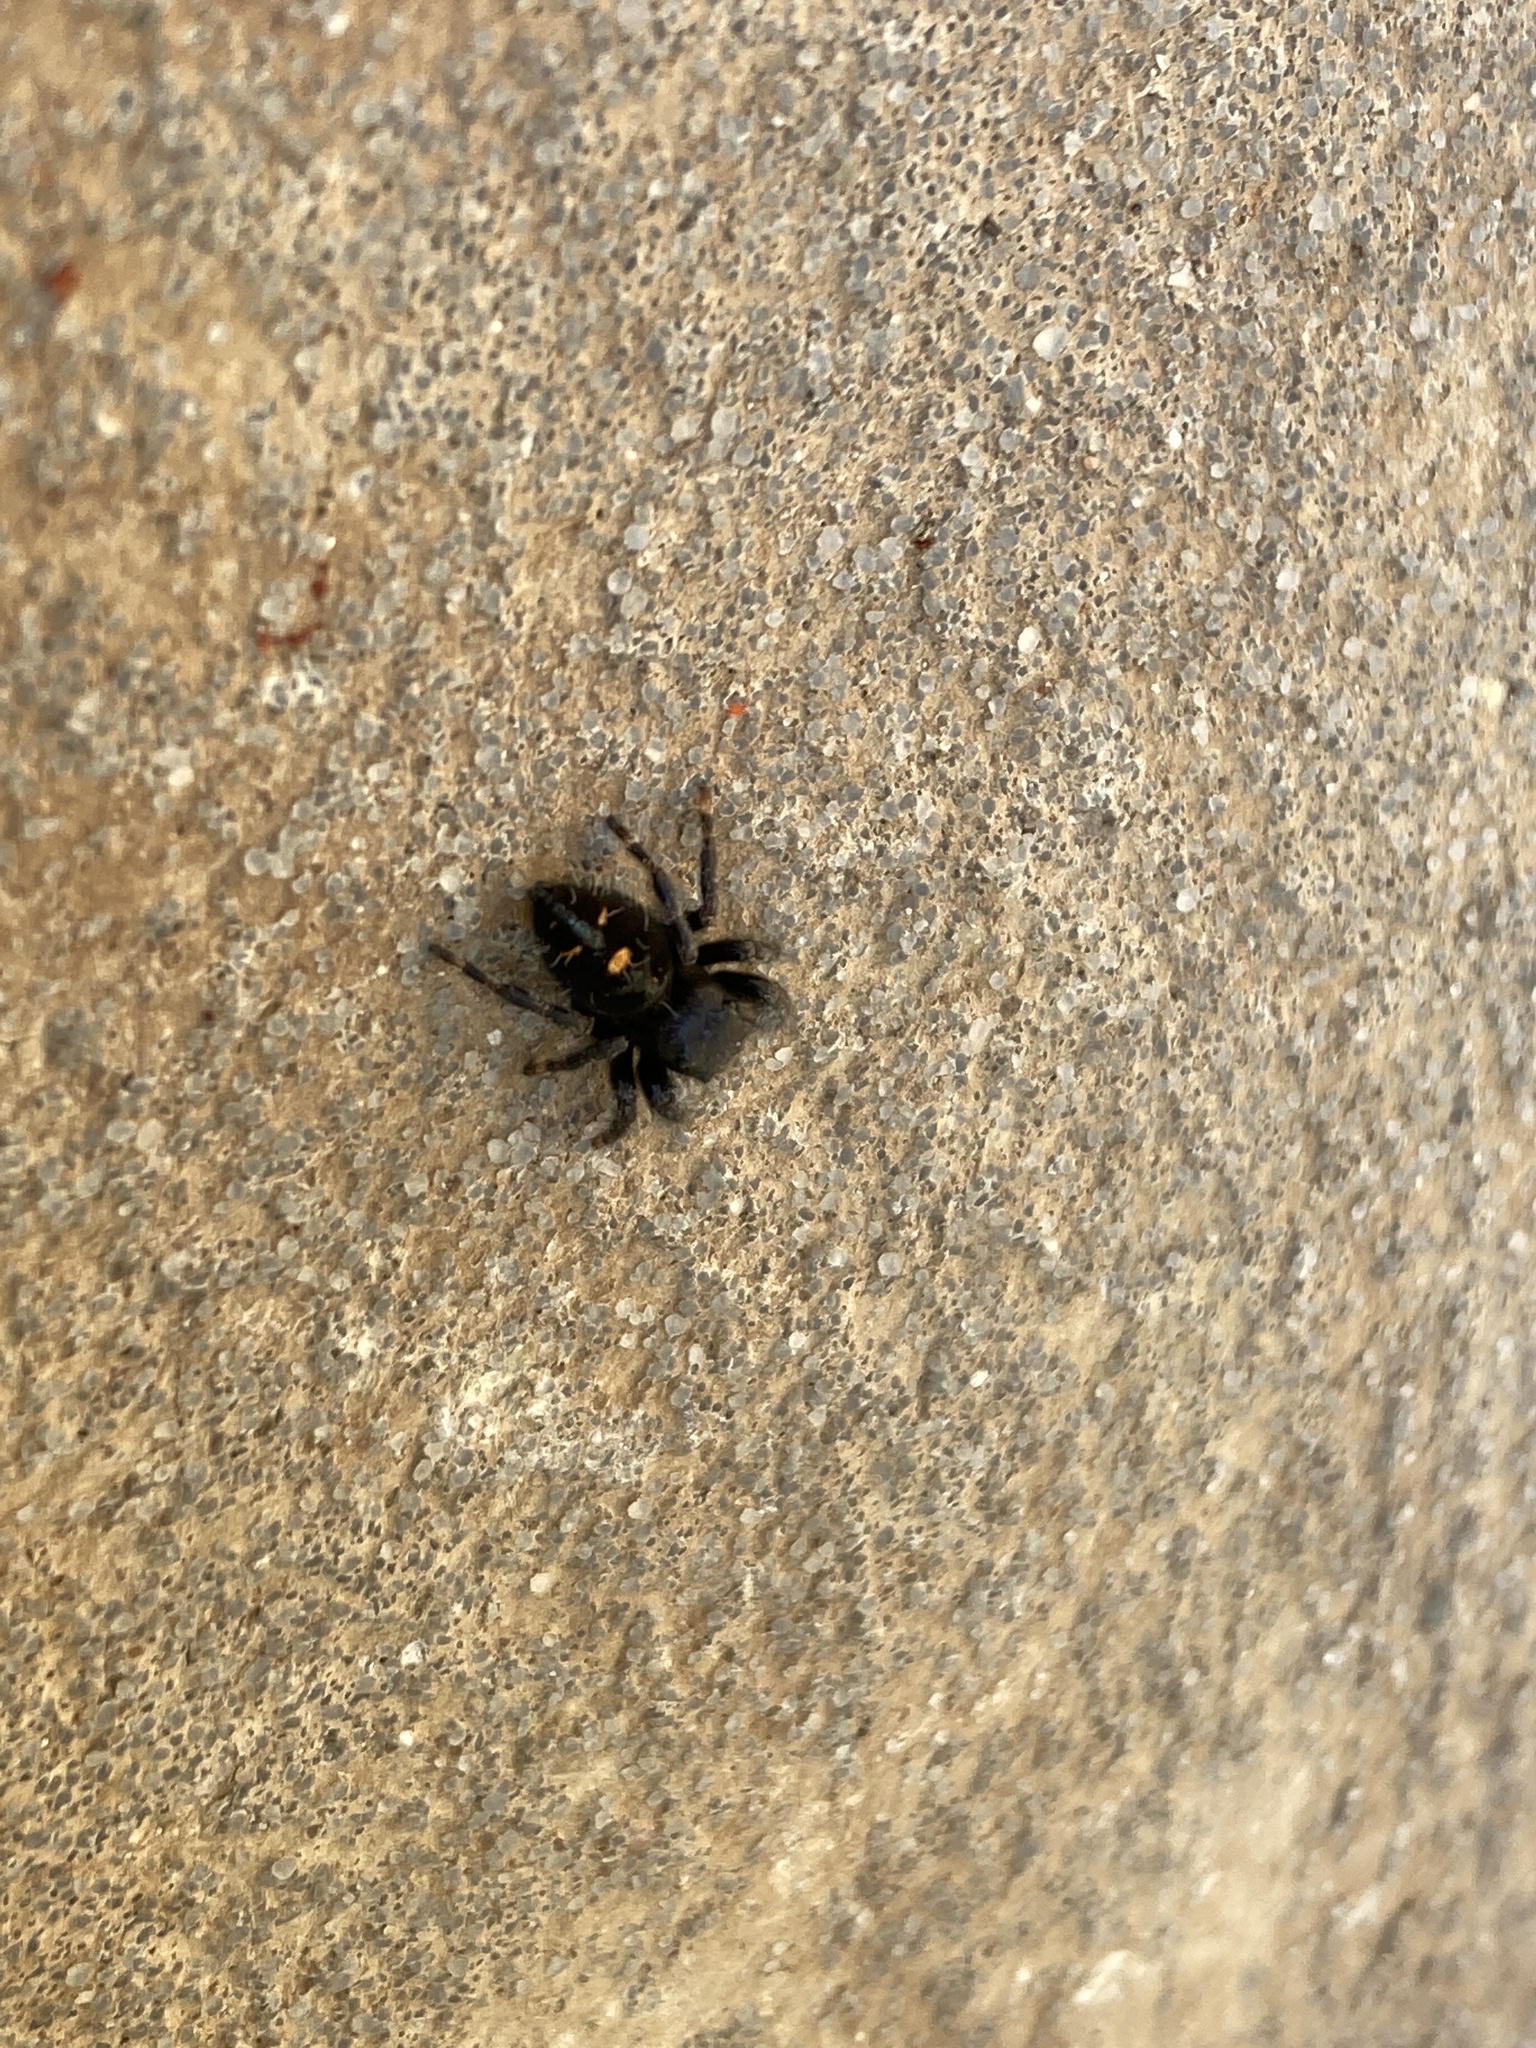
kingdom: Animalia
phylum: Arthropoda
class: Arachnida
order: Araneae
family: Salticidae
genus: Phidippus
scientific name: Phidippus audax
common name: Bold jumper
